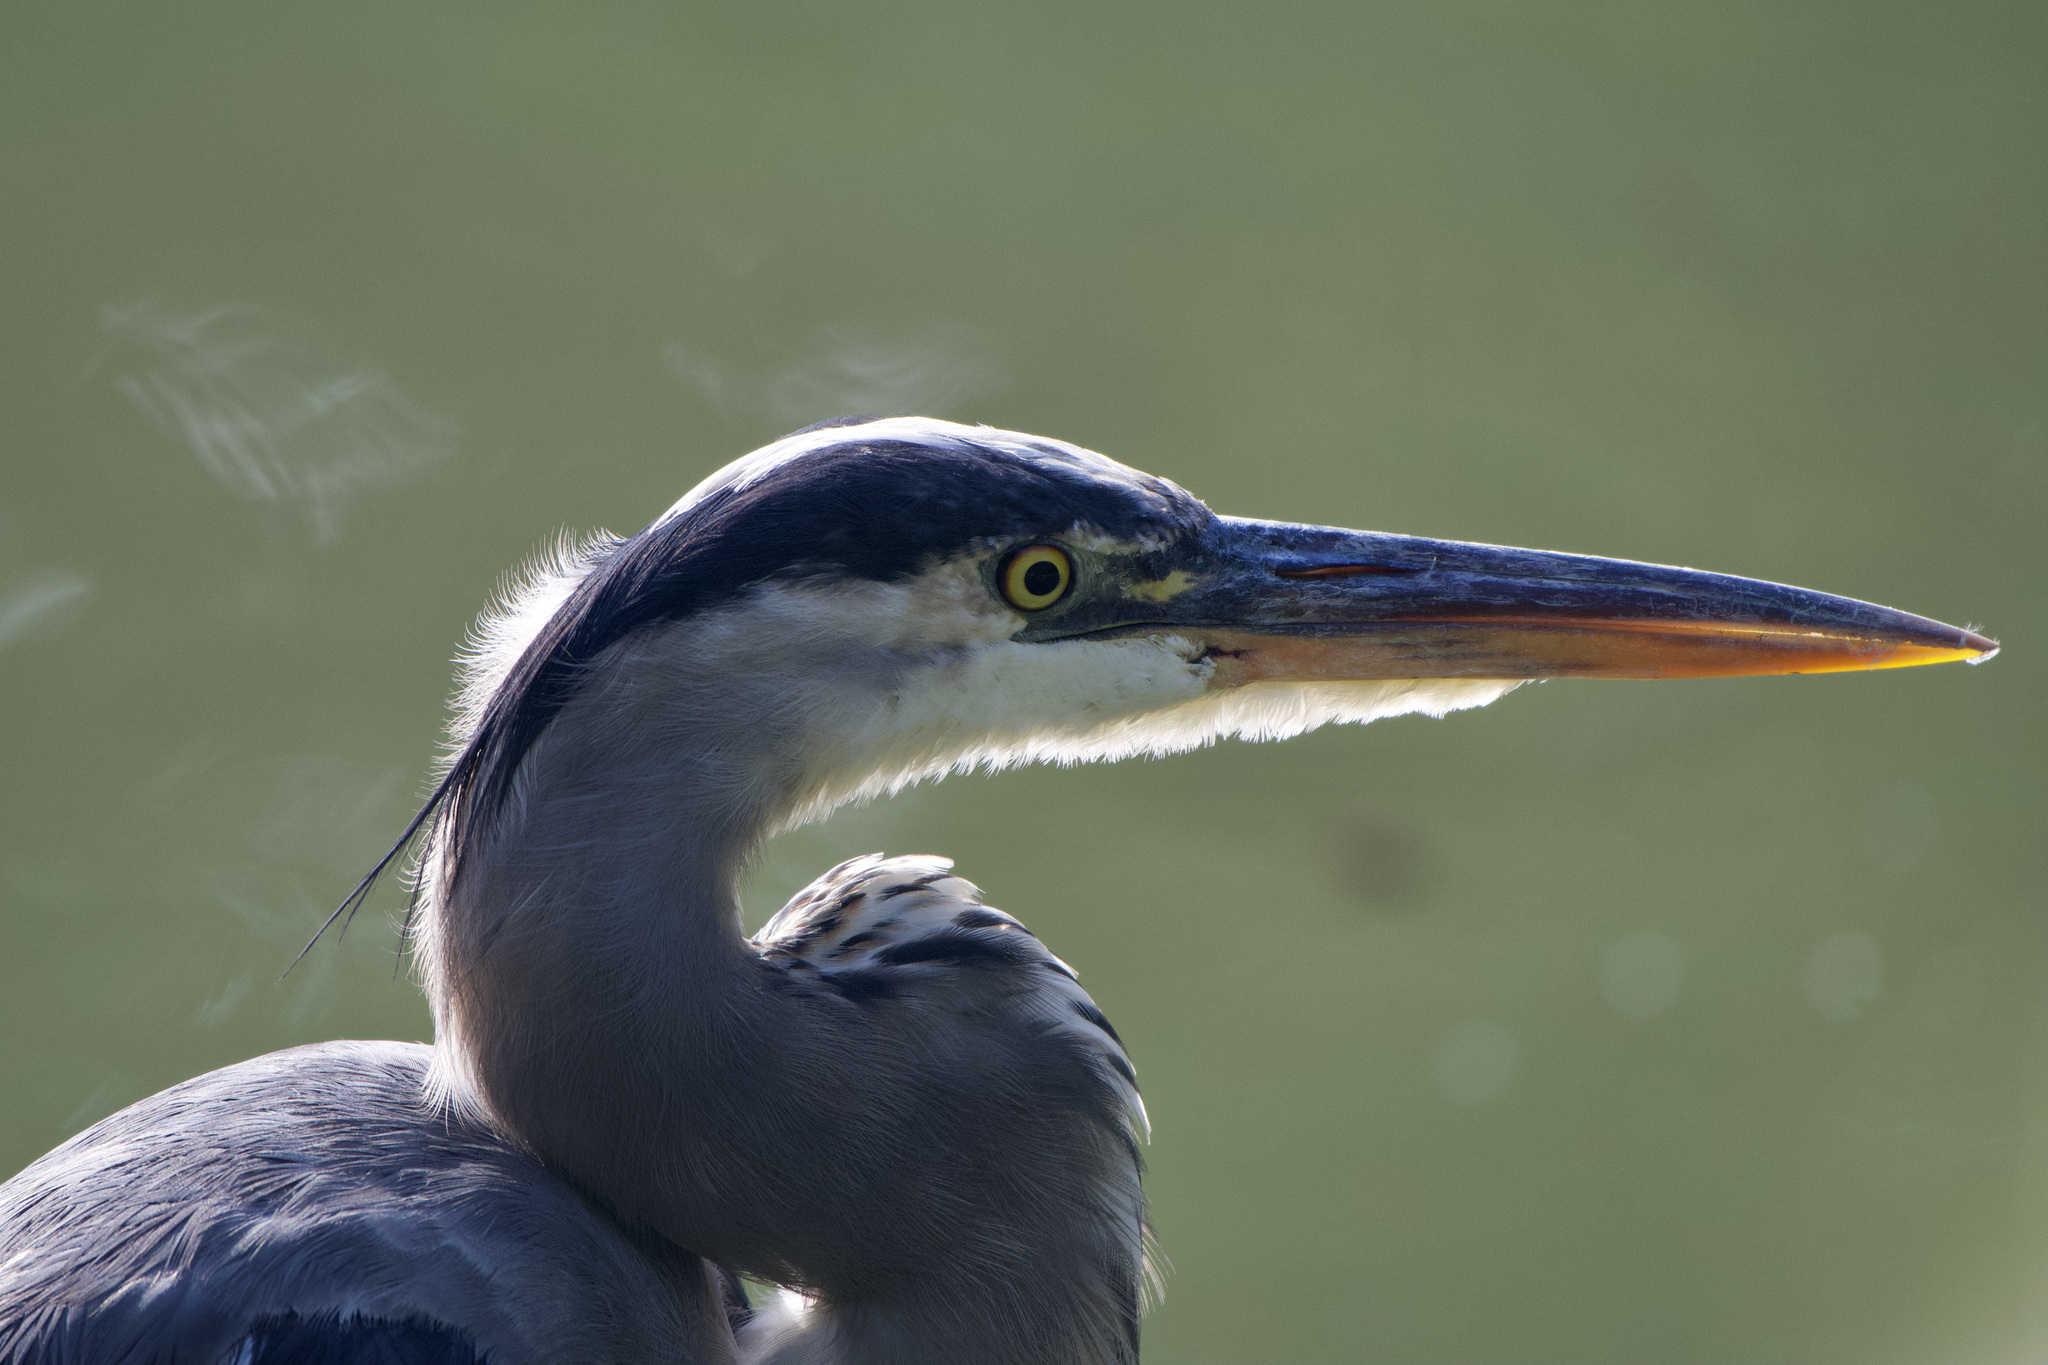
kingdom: Animalia
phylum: Chordata
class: Aves
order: Pelecaniformes
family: Ardeidae
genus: Ardea
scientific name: Ardea herodias
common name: Great blue heron
